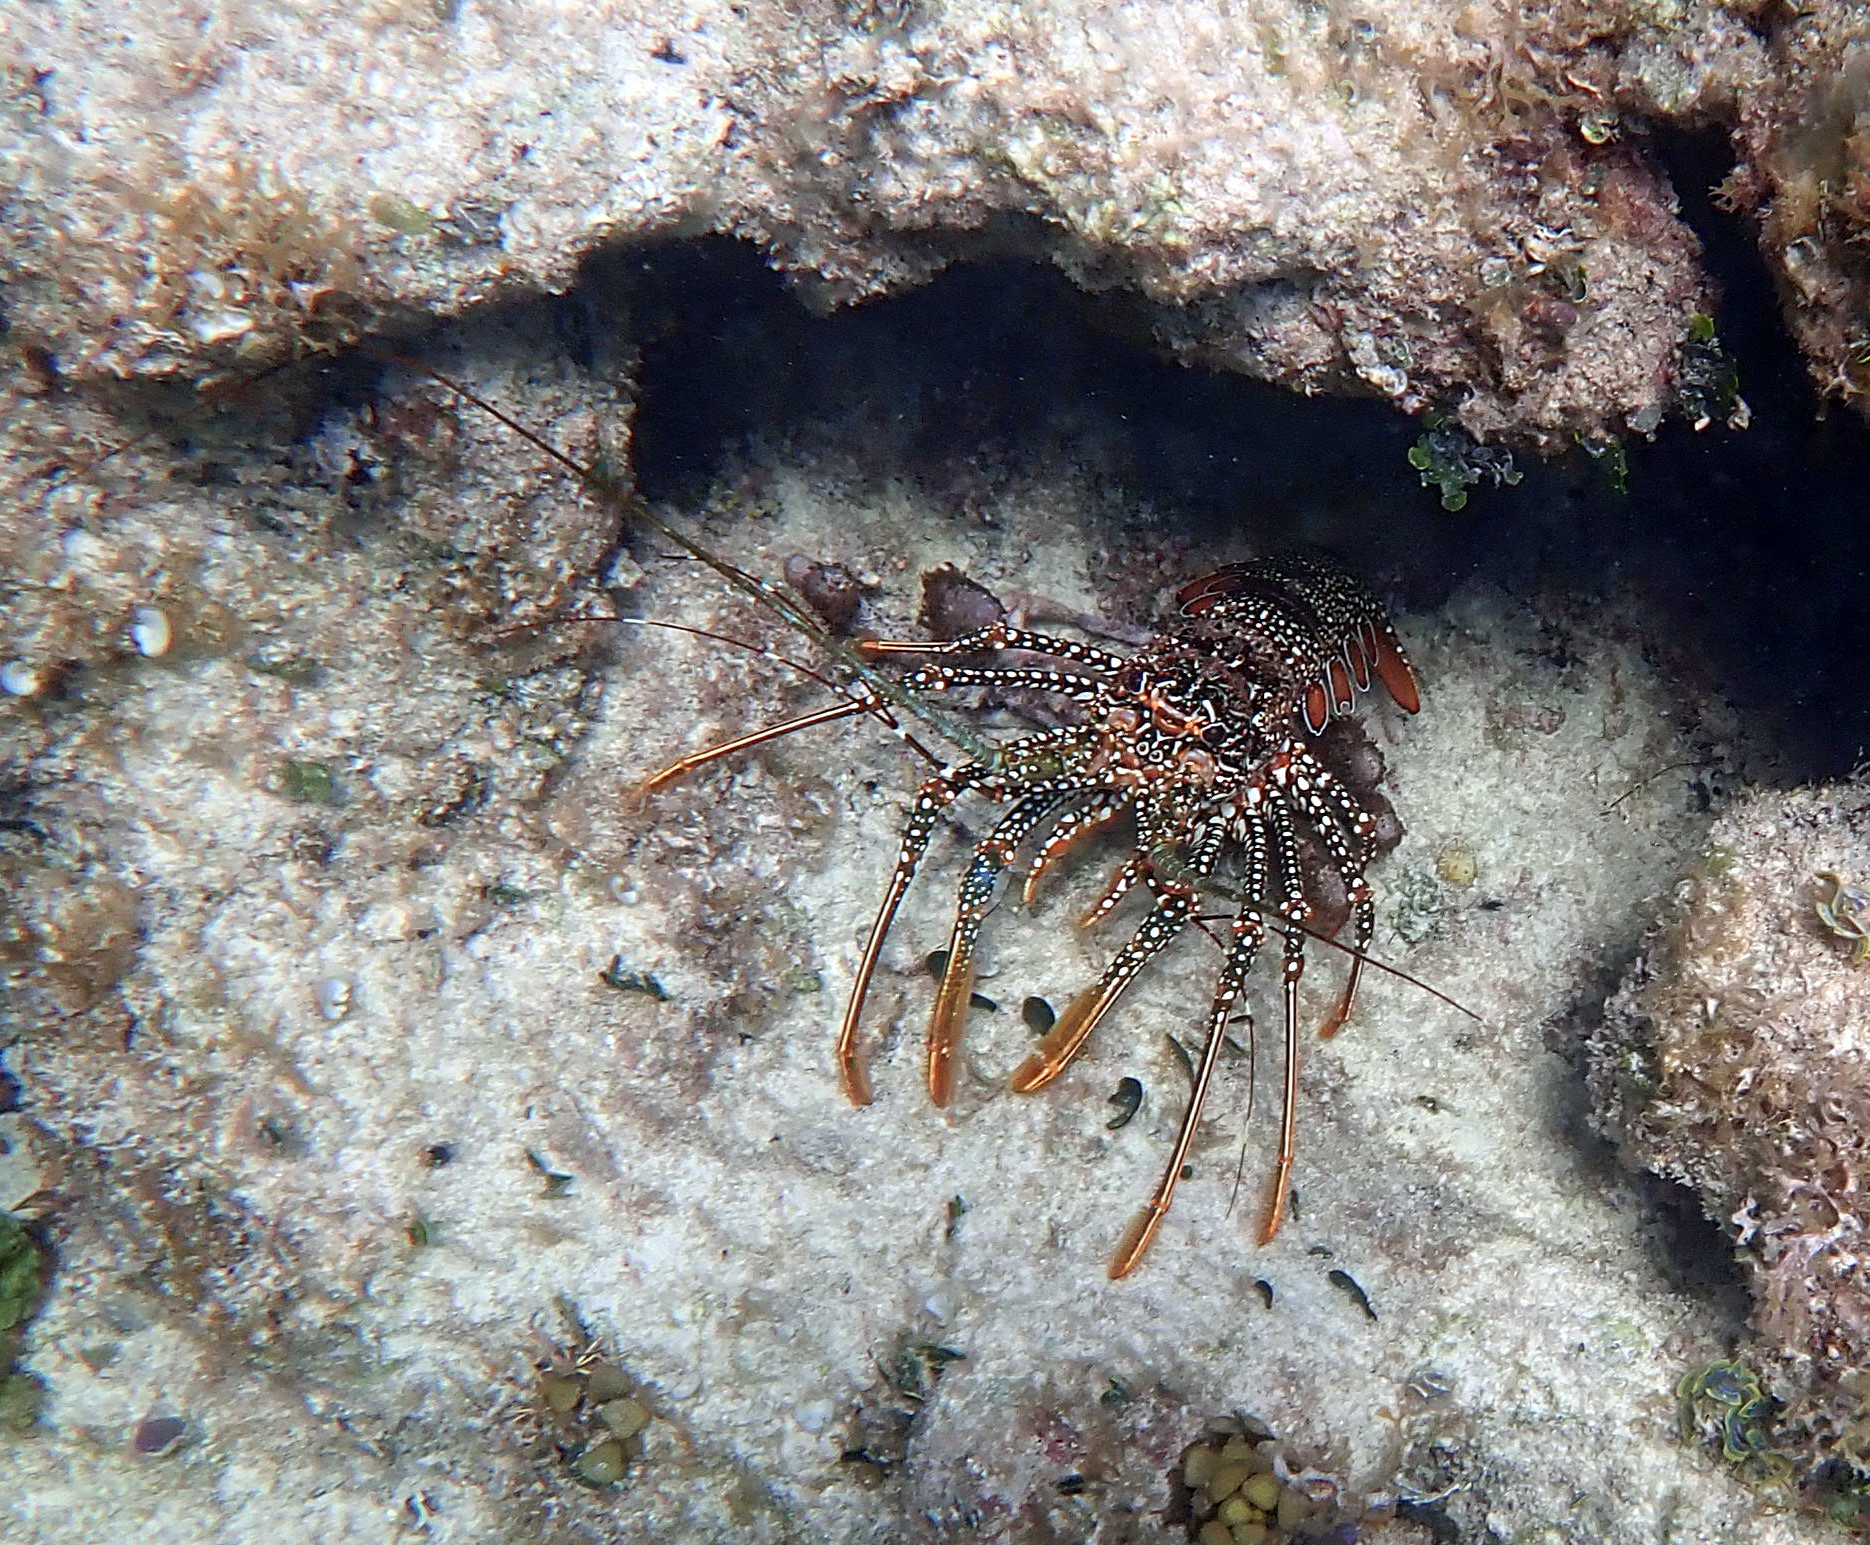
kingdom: Animalia
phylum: Arthropoda
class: Malacostraca
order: Decapoda
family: Palinuridae
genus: Panulirus
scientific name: Panulirus guttatus
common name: Spotted spiny lobster
